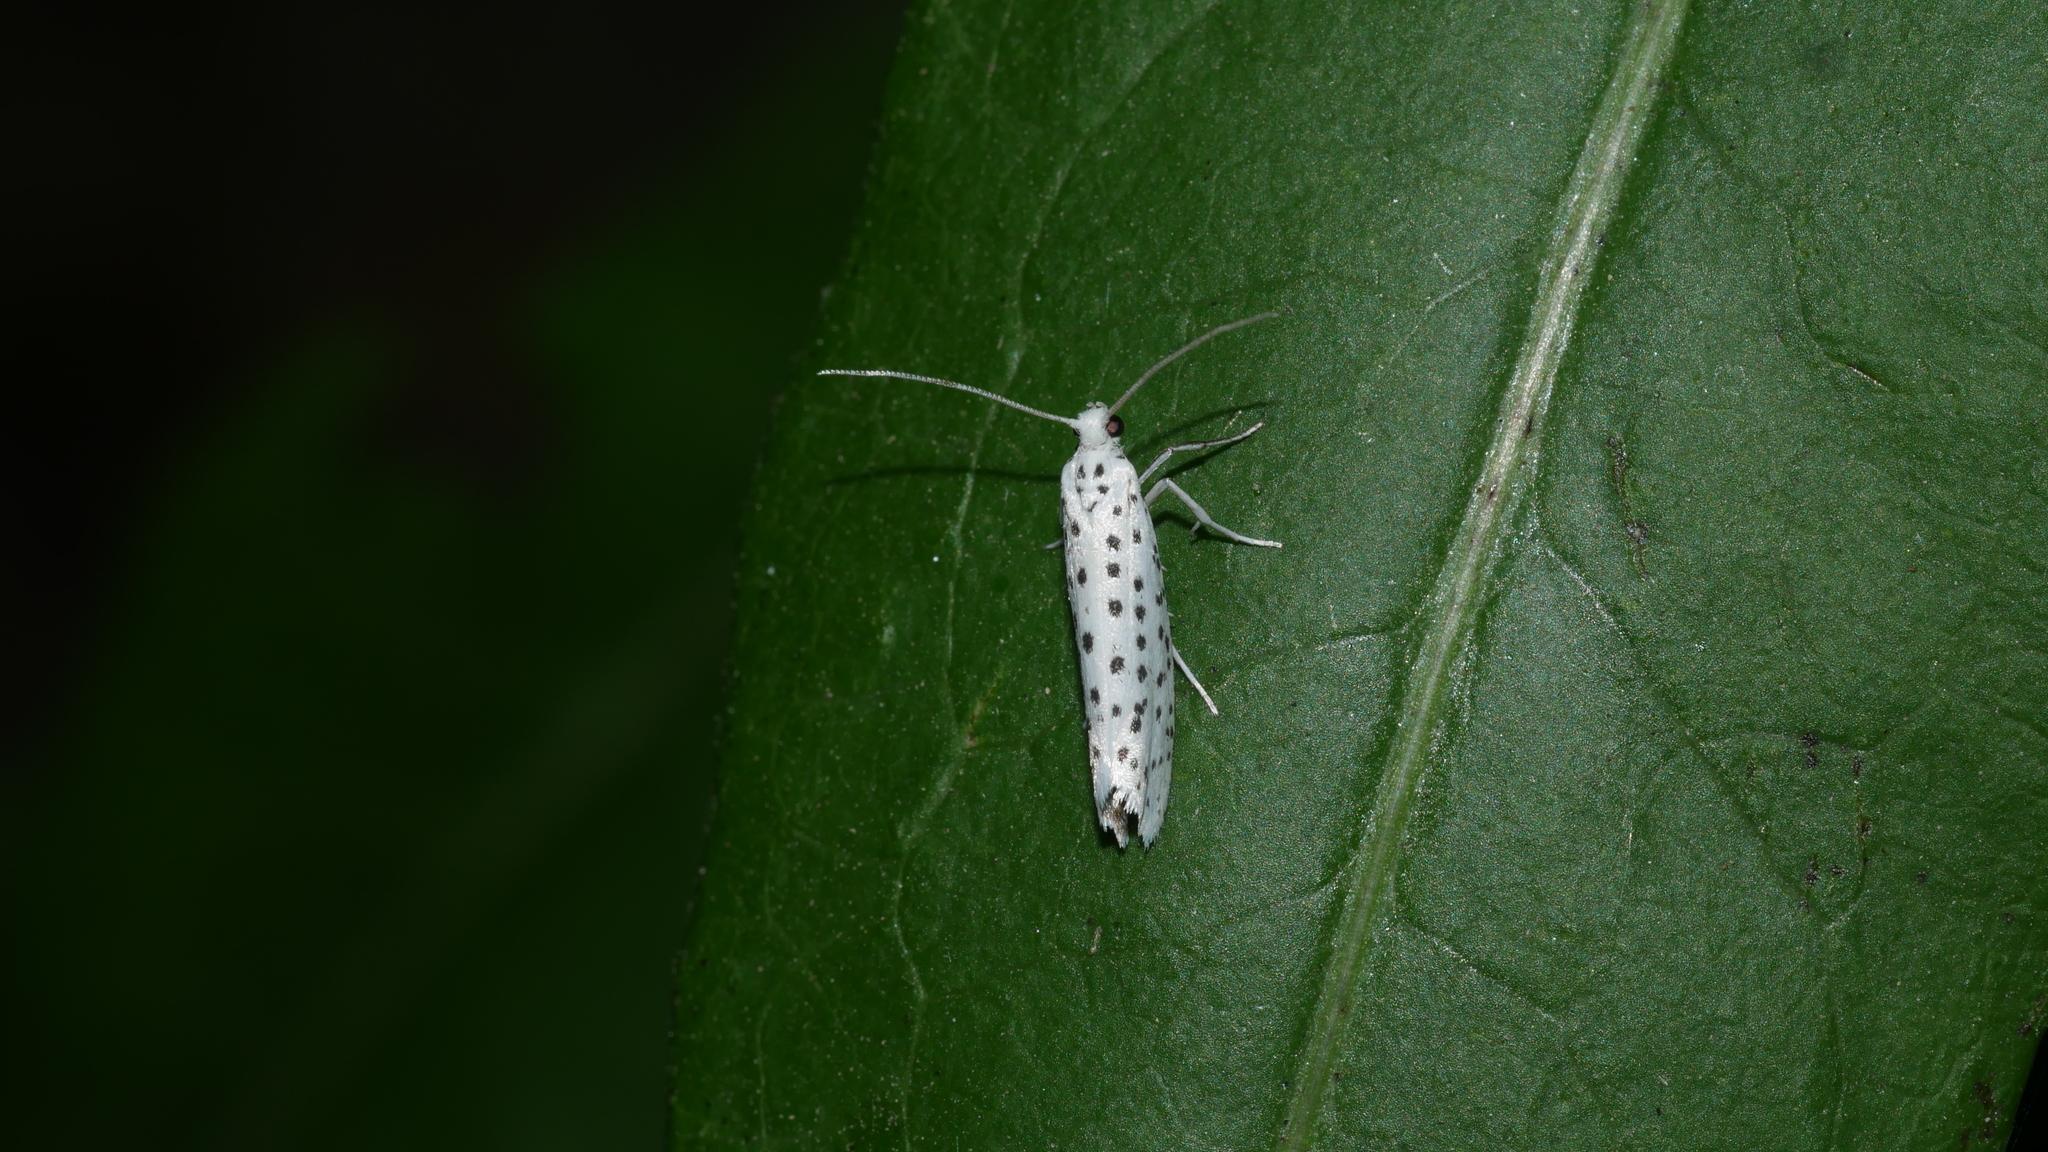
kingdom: Animalia
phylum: Arthropoda
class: Insecta
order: Lepidoptera
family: Yponomeutidae
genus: Yponomeuta
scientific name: Yponomeuta multipunctella
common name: American ermine moth
